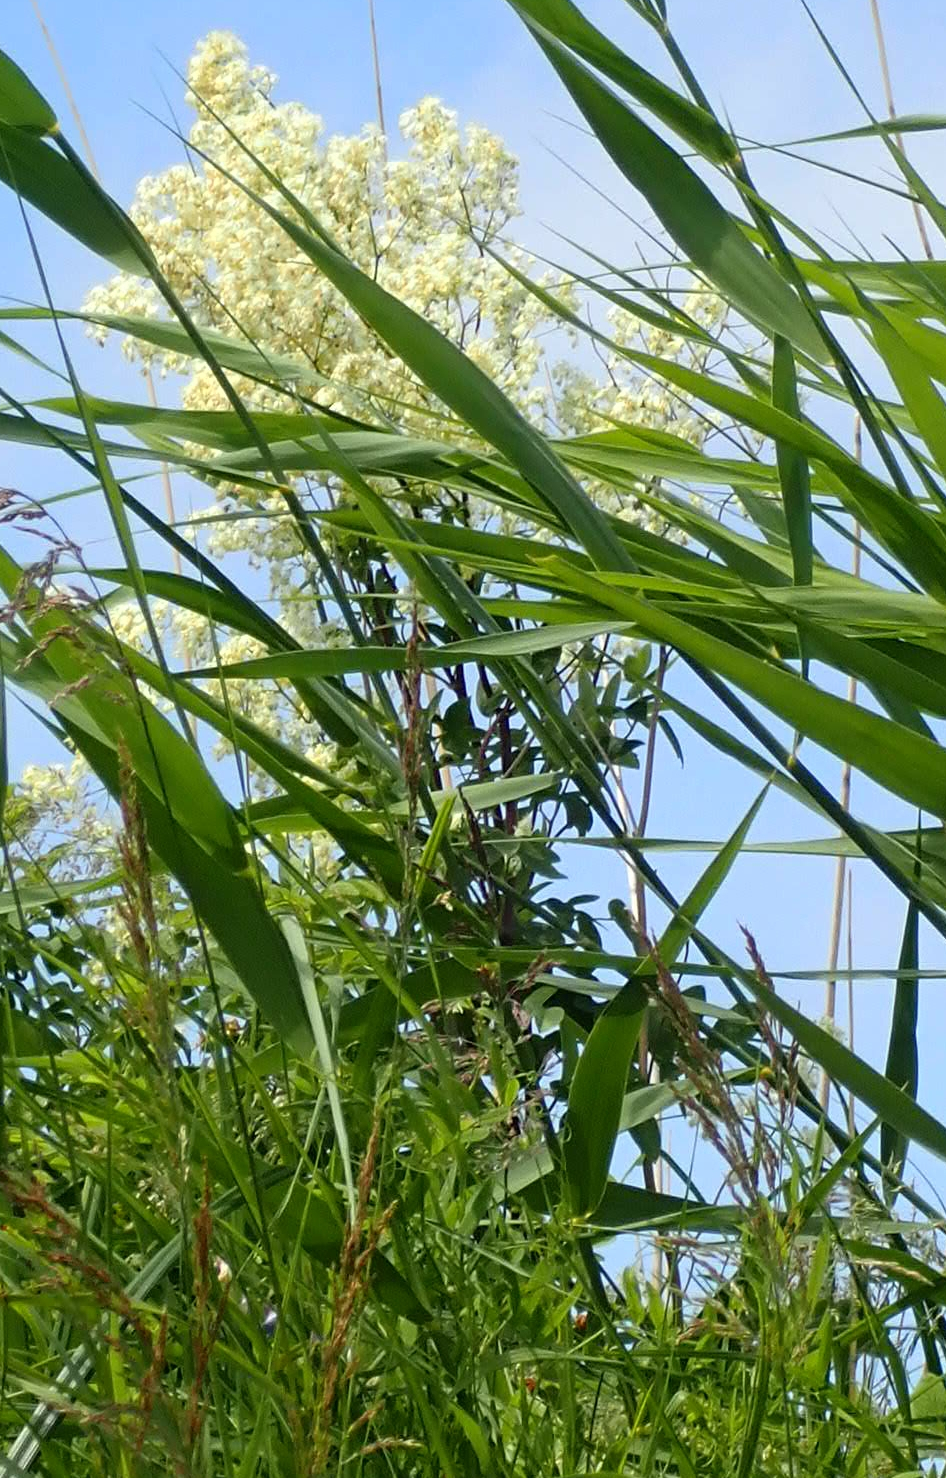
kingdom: Plantae
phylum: Tracheophyta
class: Magnoliopsida
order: Ranunculales
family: Ranunculaceae
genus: Thalictrum
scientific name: Thalictrum dasycarpum
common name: Purple meadow-rue
